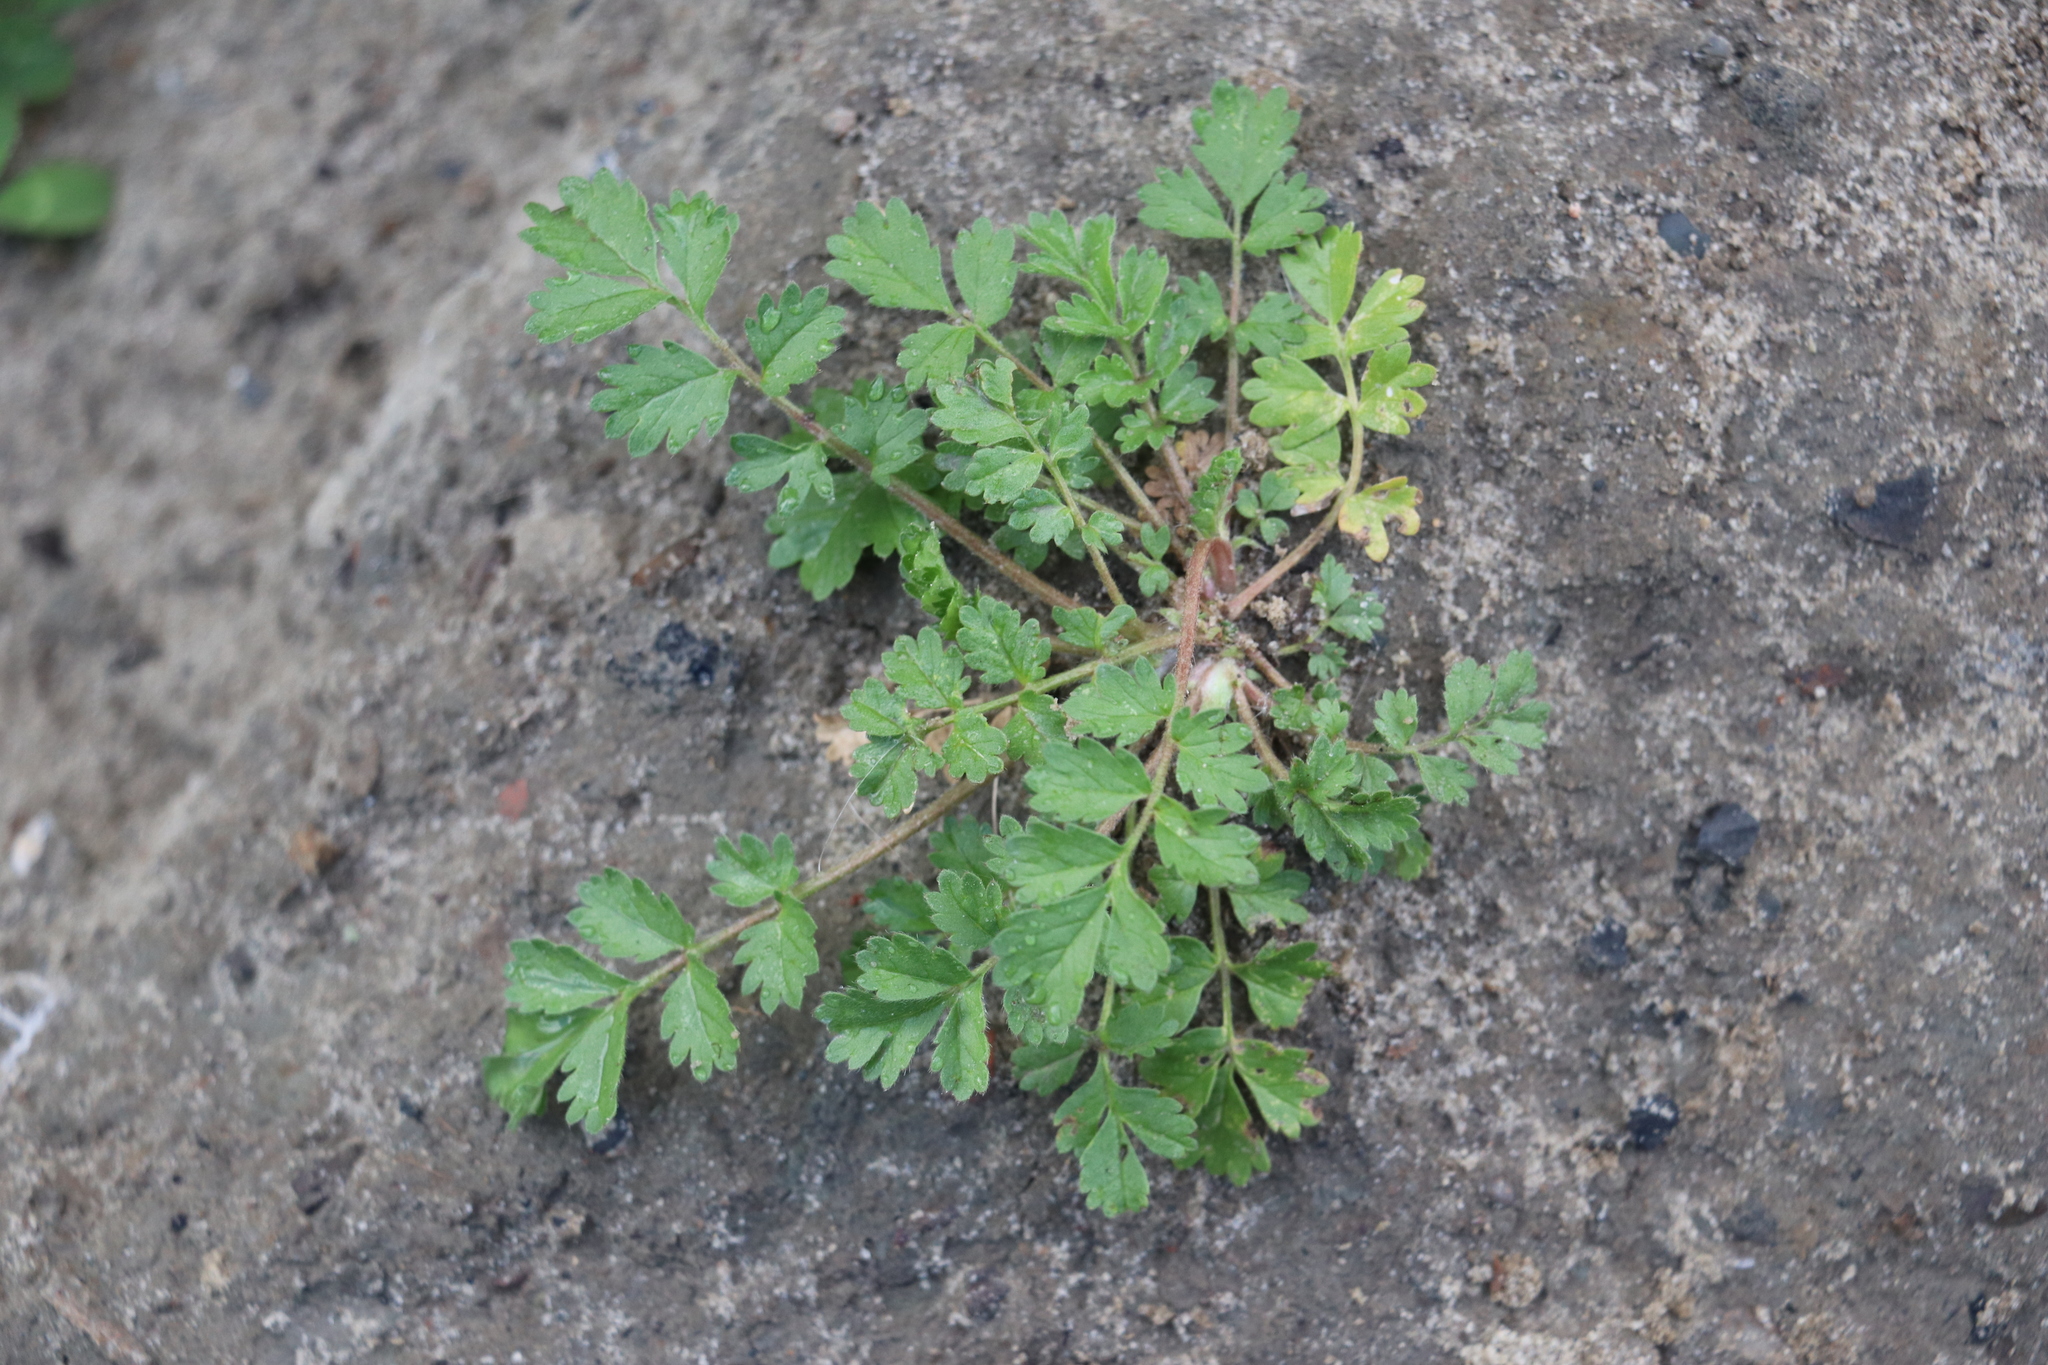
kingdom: Plantae
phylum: Tracheophyta
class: Magnoliopsida
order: Rosales
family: Rosaceae
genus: Potentilla
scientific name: Potentilla supina
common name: Prostrate cinquefoil
